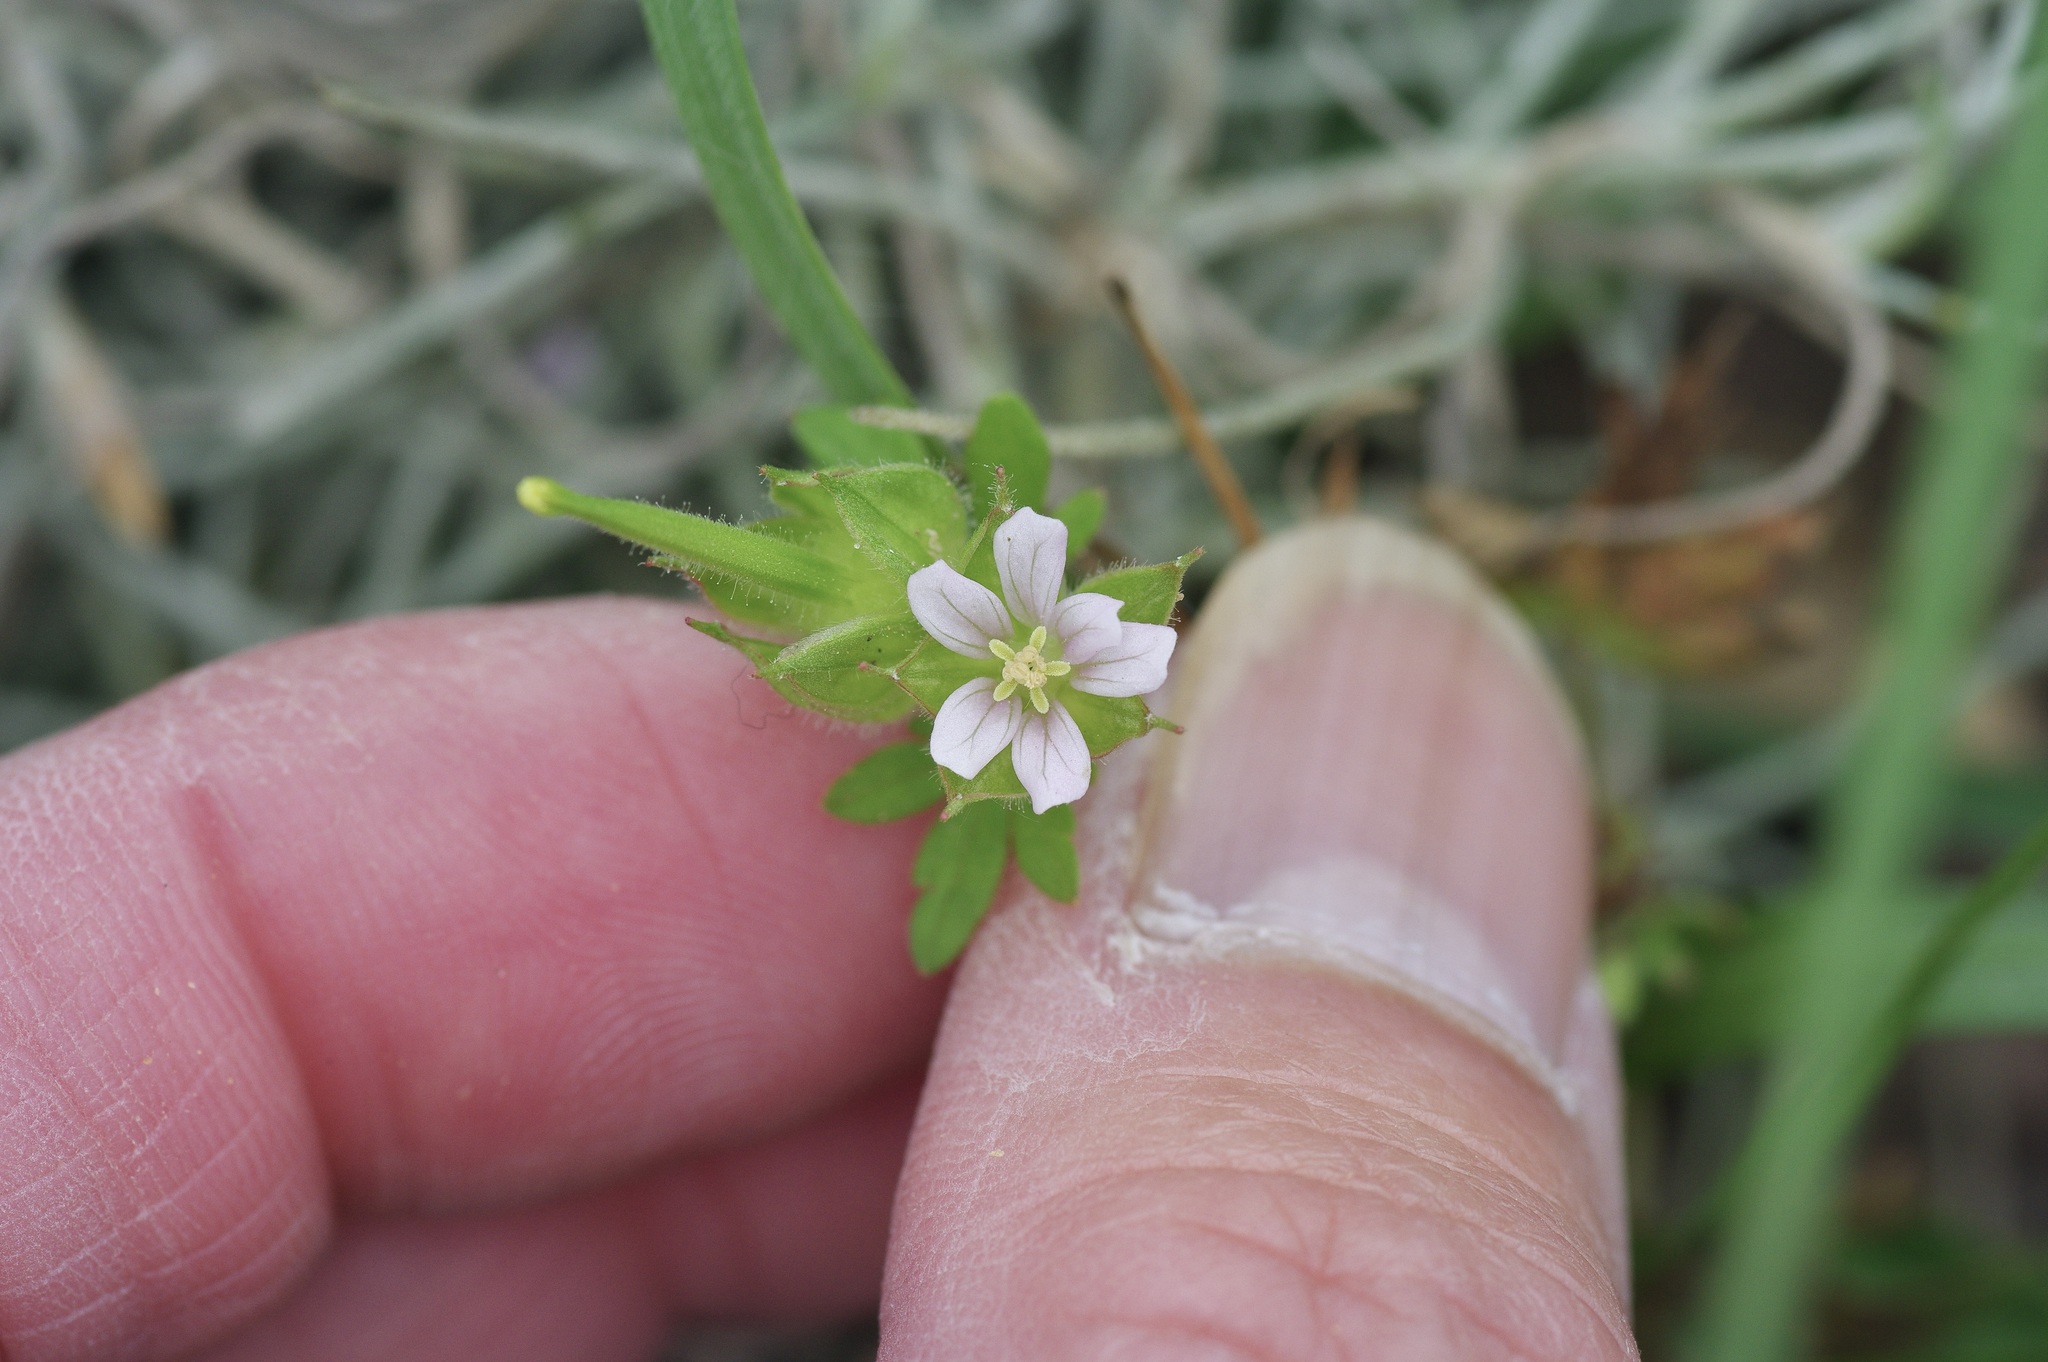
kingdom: Plantae
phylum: Tracheophyta
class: Magnoliopsida
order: Geraniales
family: Geraniaceae
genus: Geranium
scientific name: Geranium carolinianum
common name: Carolina crane's-bill
